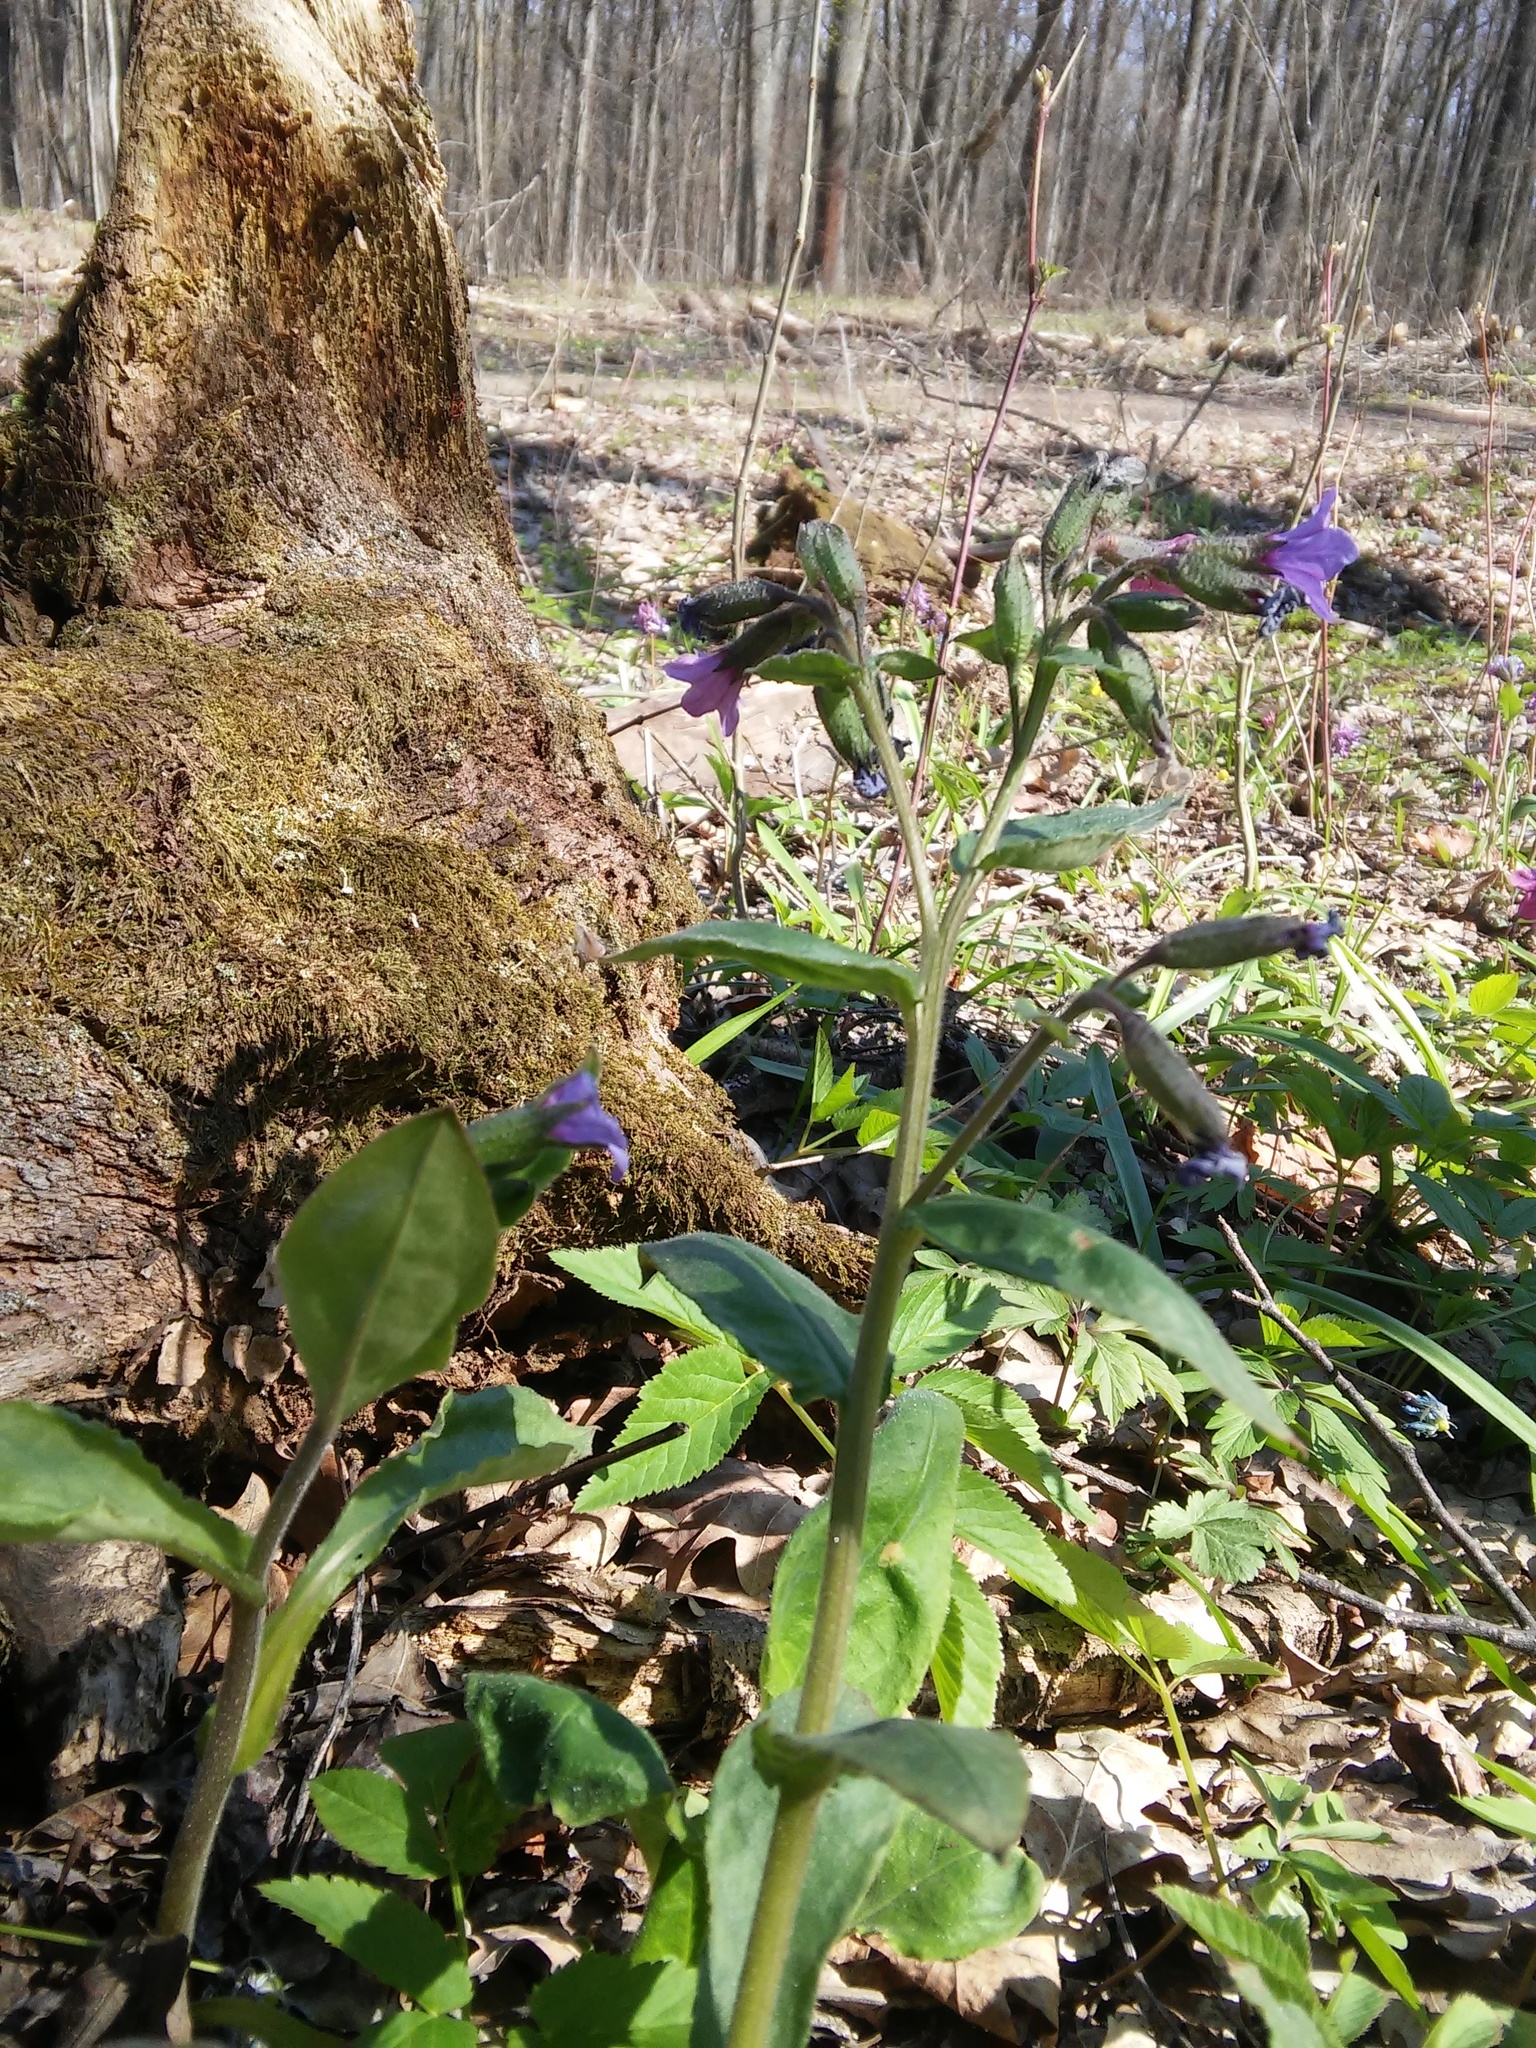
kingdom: Plantae
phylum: Tracheophyta
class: Magnoliopsida
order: Boraginales
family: Boraginaceae
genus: Pulmonaria
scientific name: Pulmonaria obscura
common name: Suffolk lungwort
